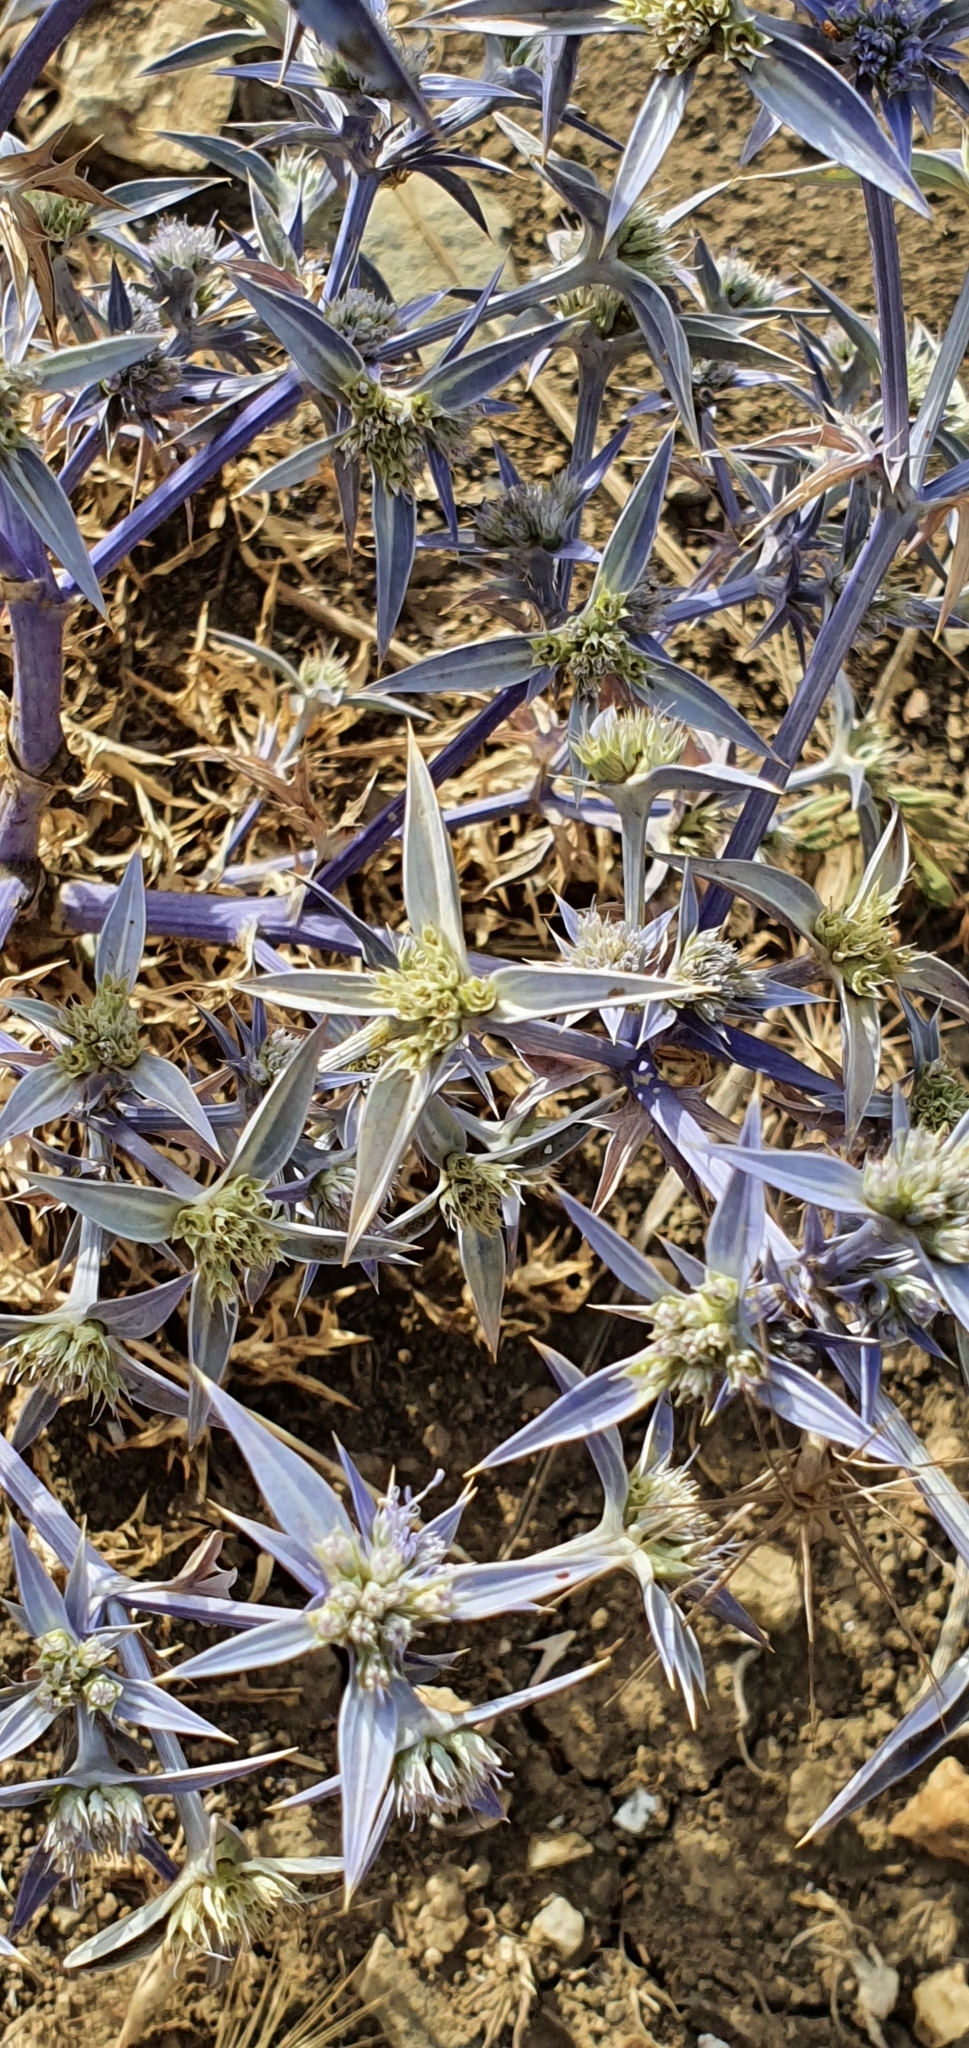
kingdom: Plantae
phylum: Tracheophyta
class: Magnoliopsida
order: Apiales
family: Apiaceae
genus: Eryngium
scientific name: Eryngium triquetrum
